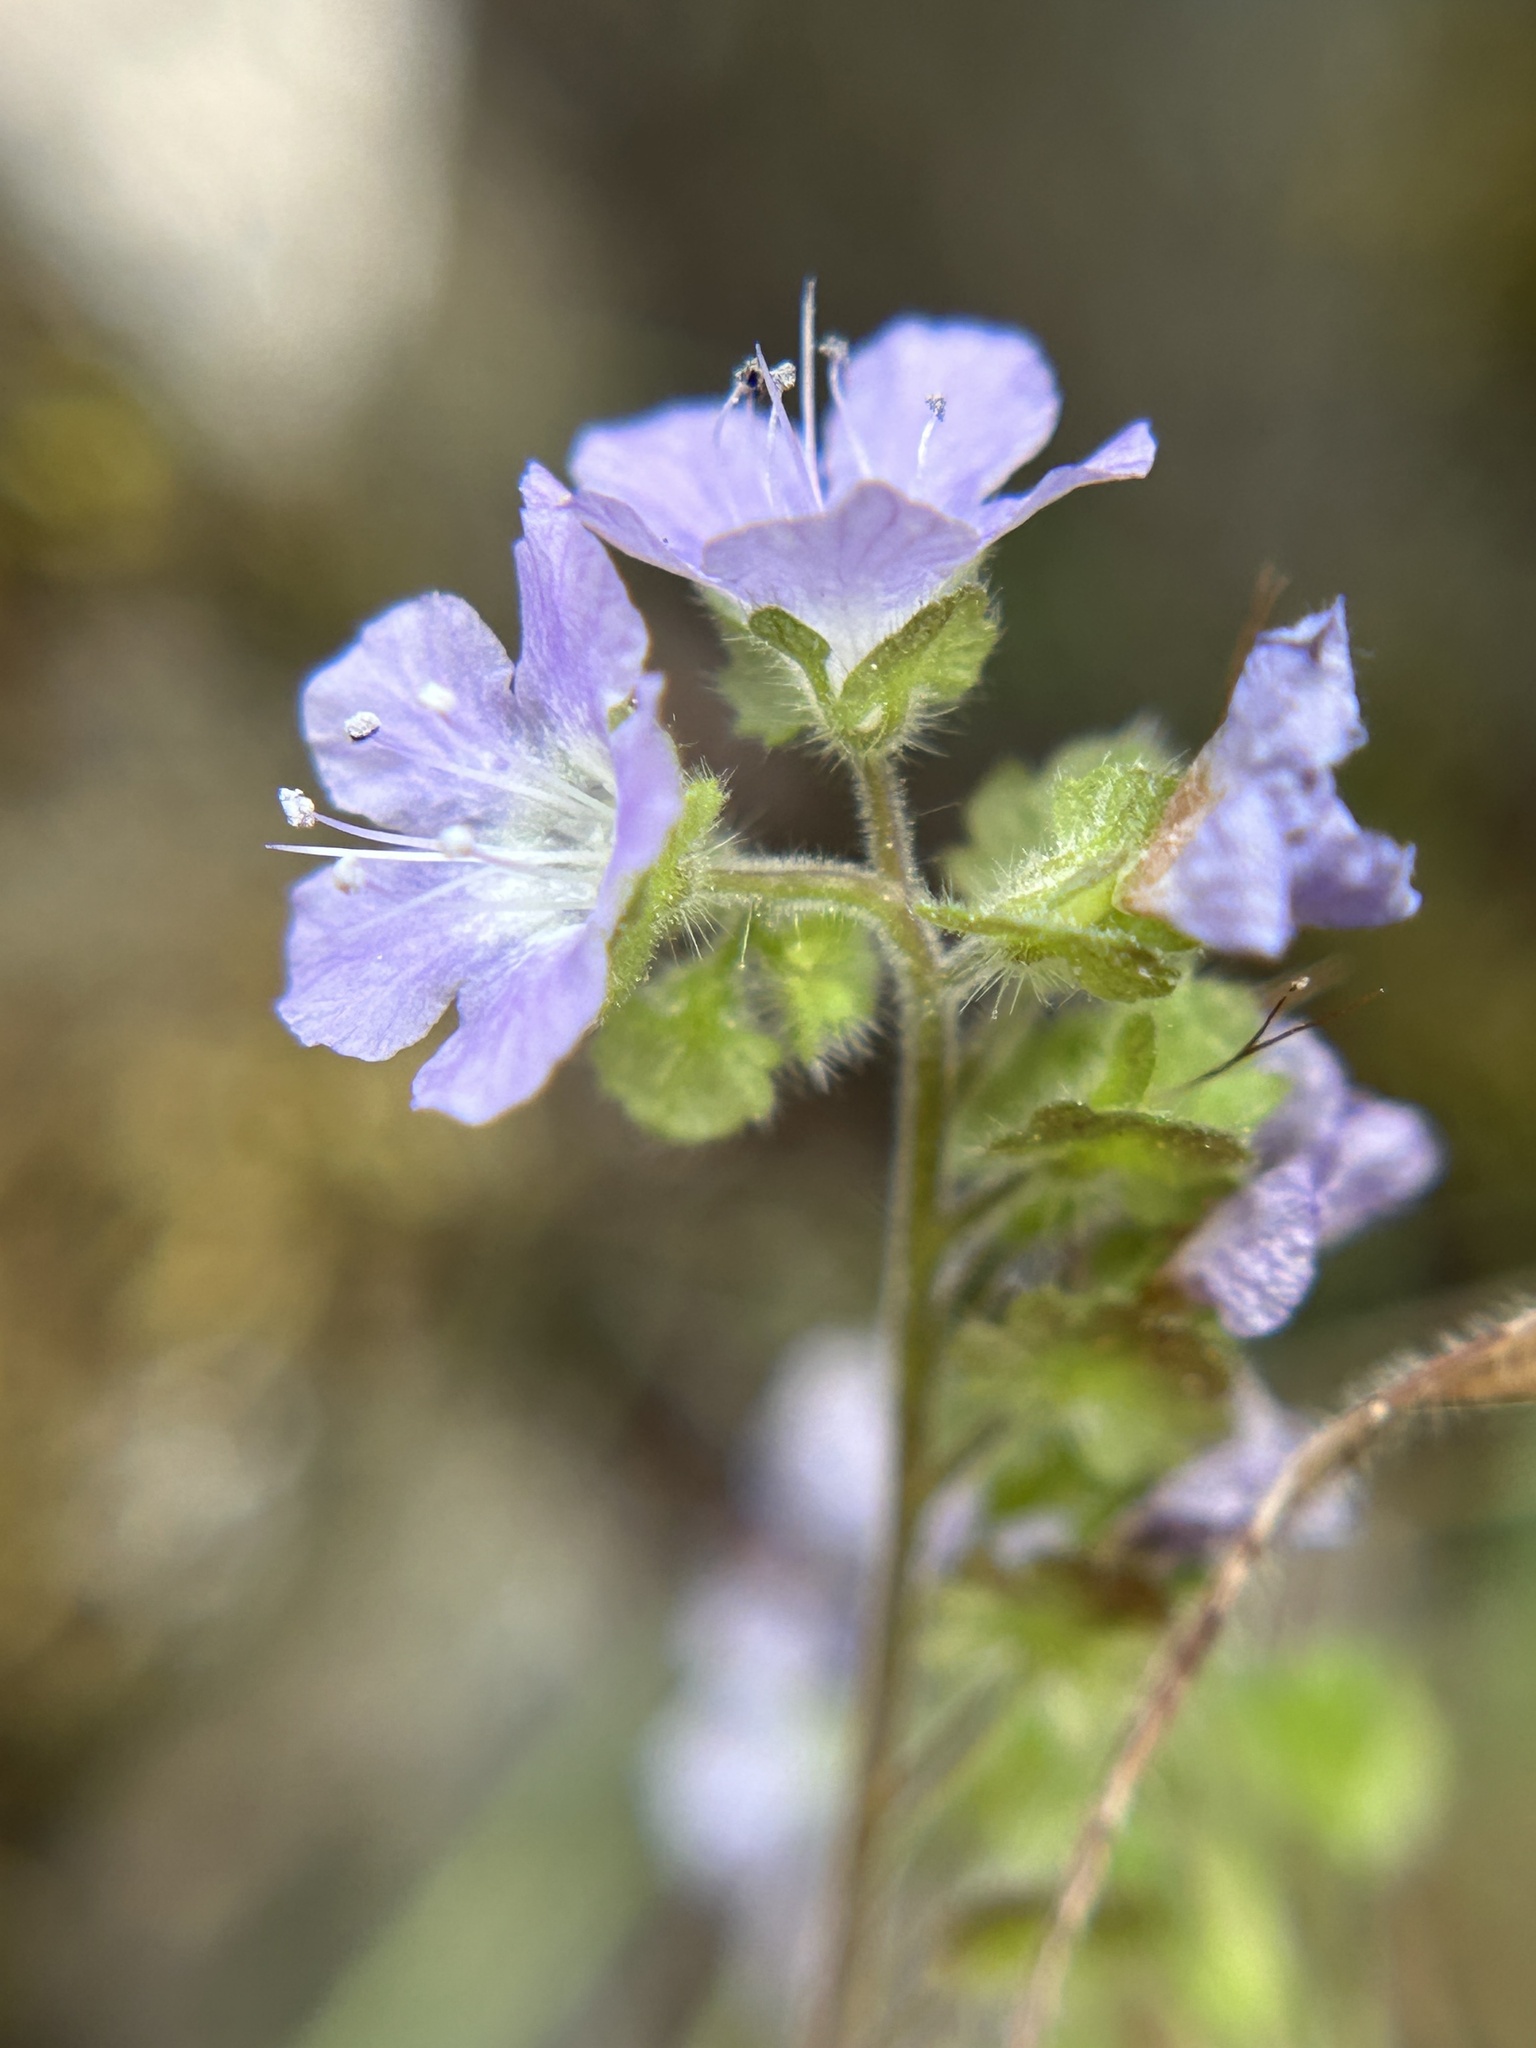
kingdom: Plantae
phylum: Tracheophyta
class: Magnoliopsida
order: Boraginales
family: Hydrophyllaceae
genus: Phacelia
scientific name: Phacelia platyloba
